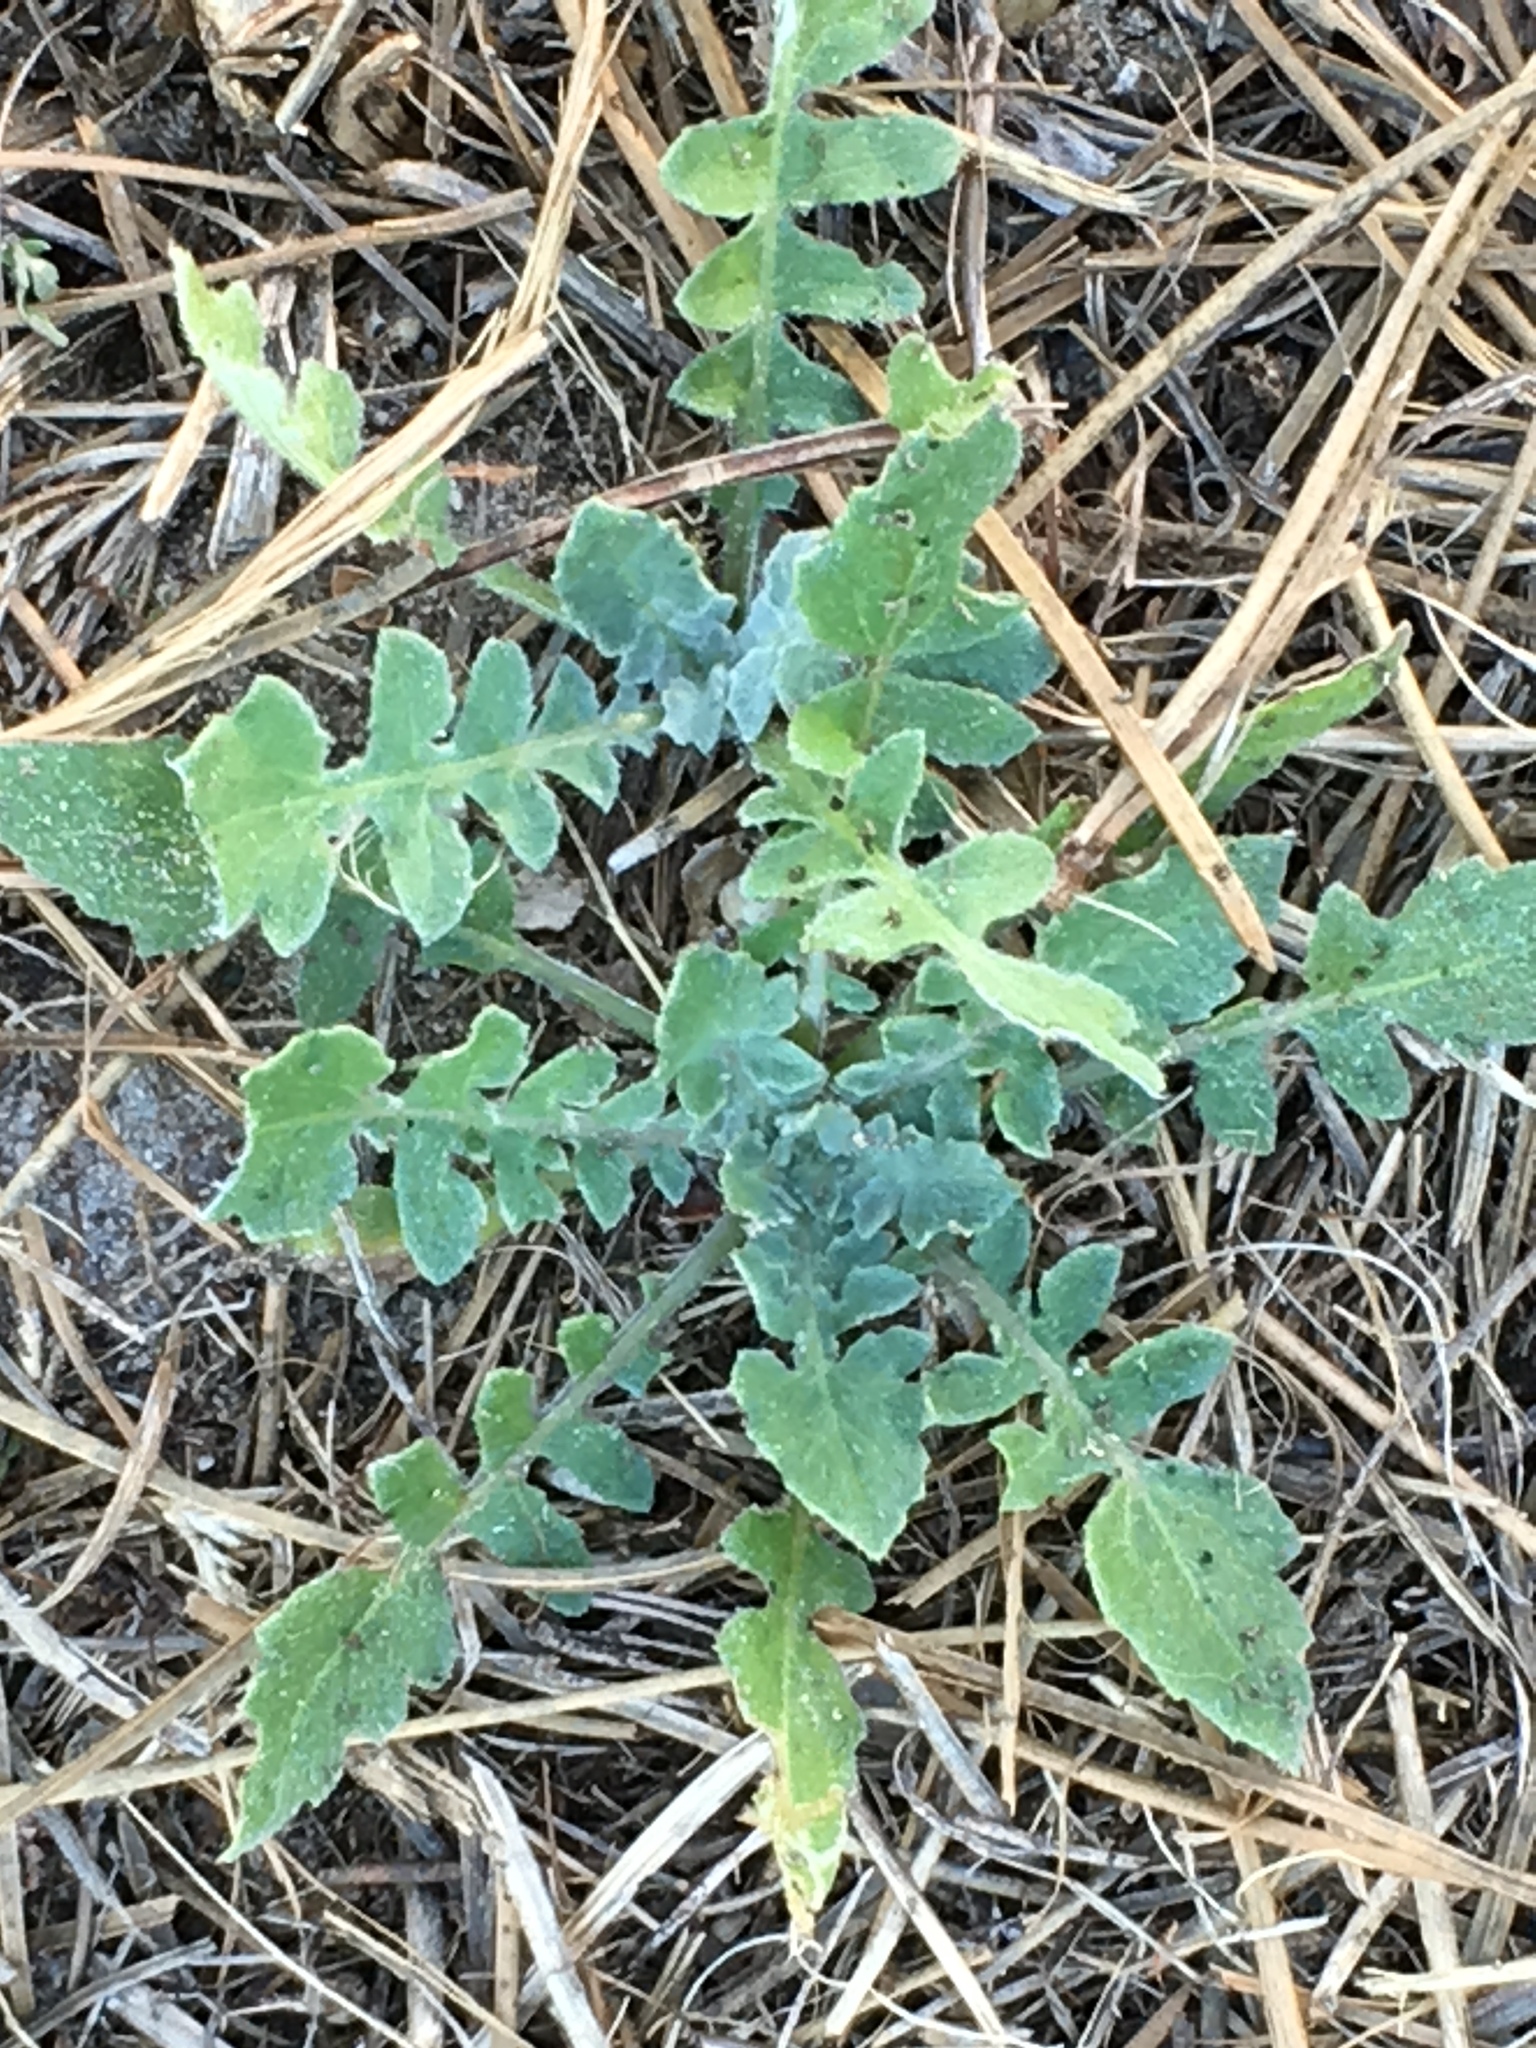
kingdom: Plantae
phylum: Tracheophyta
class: Magnoliopsida
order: Asterales
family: Asteraceae
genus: Arctotheca
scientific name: Arctotheca calendula
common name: Capeweed
